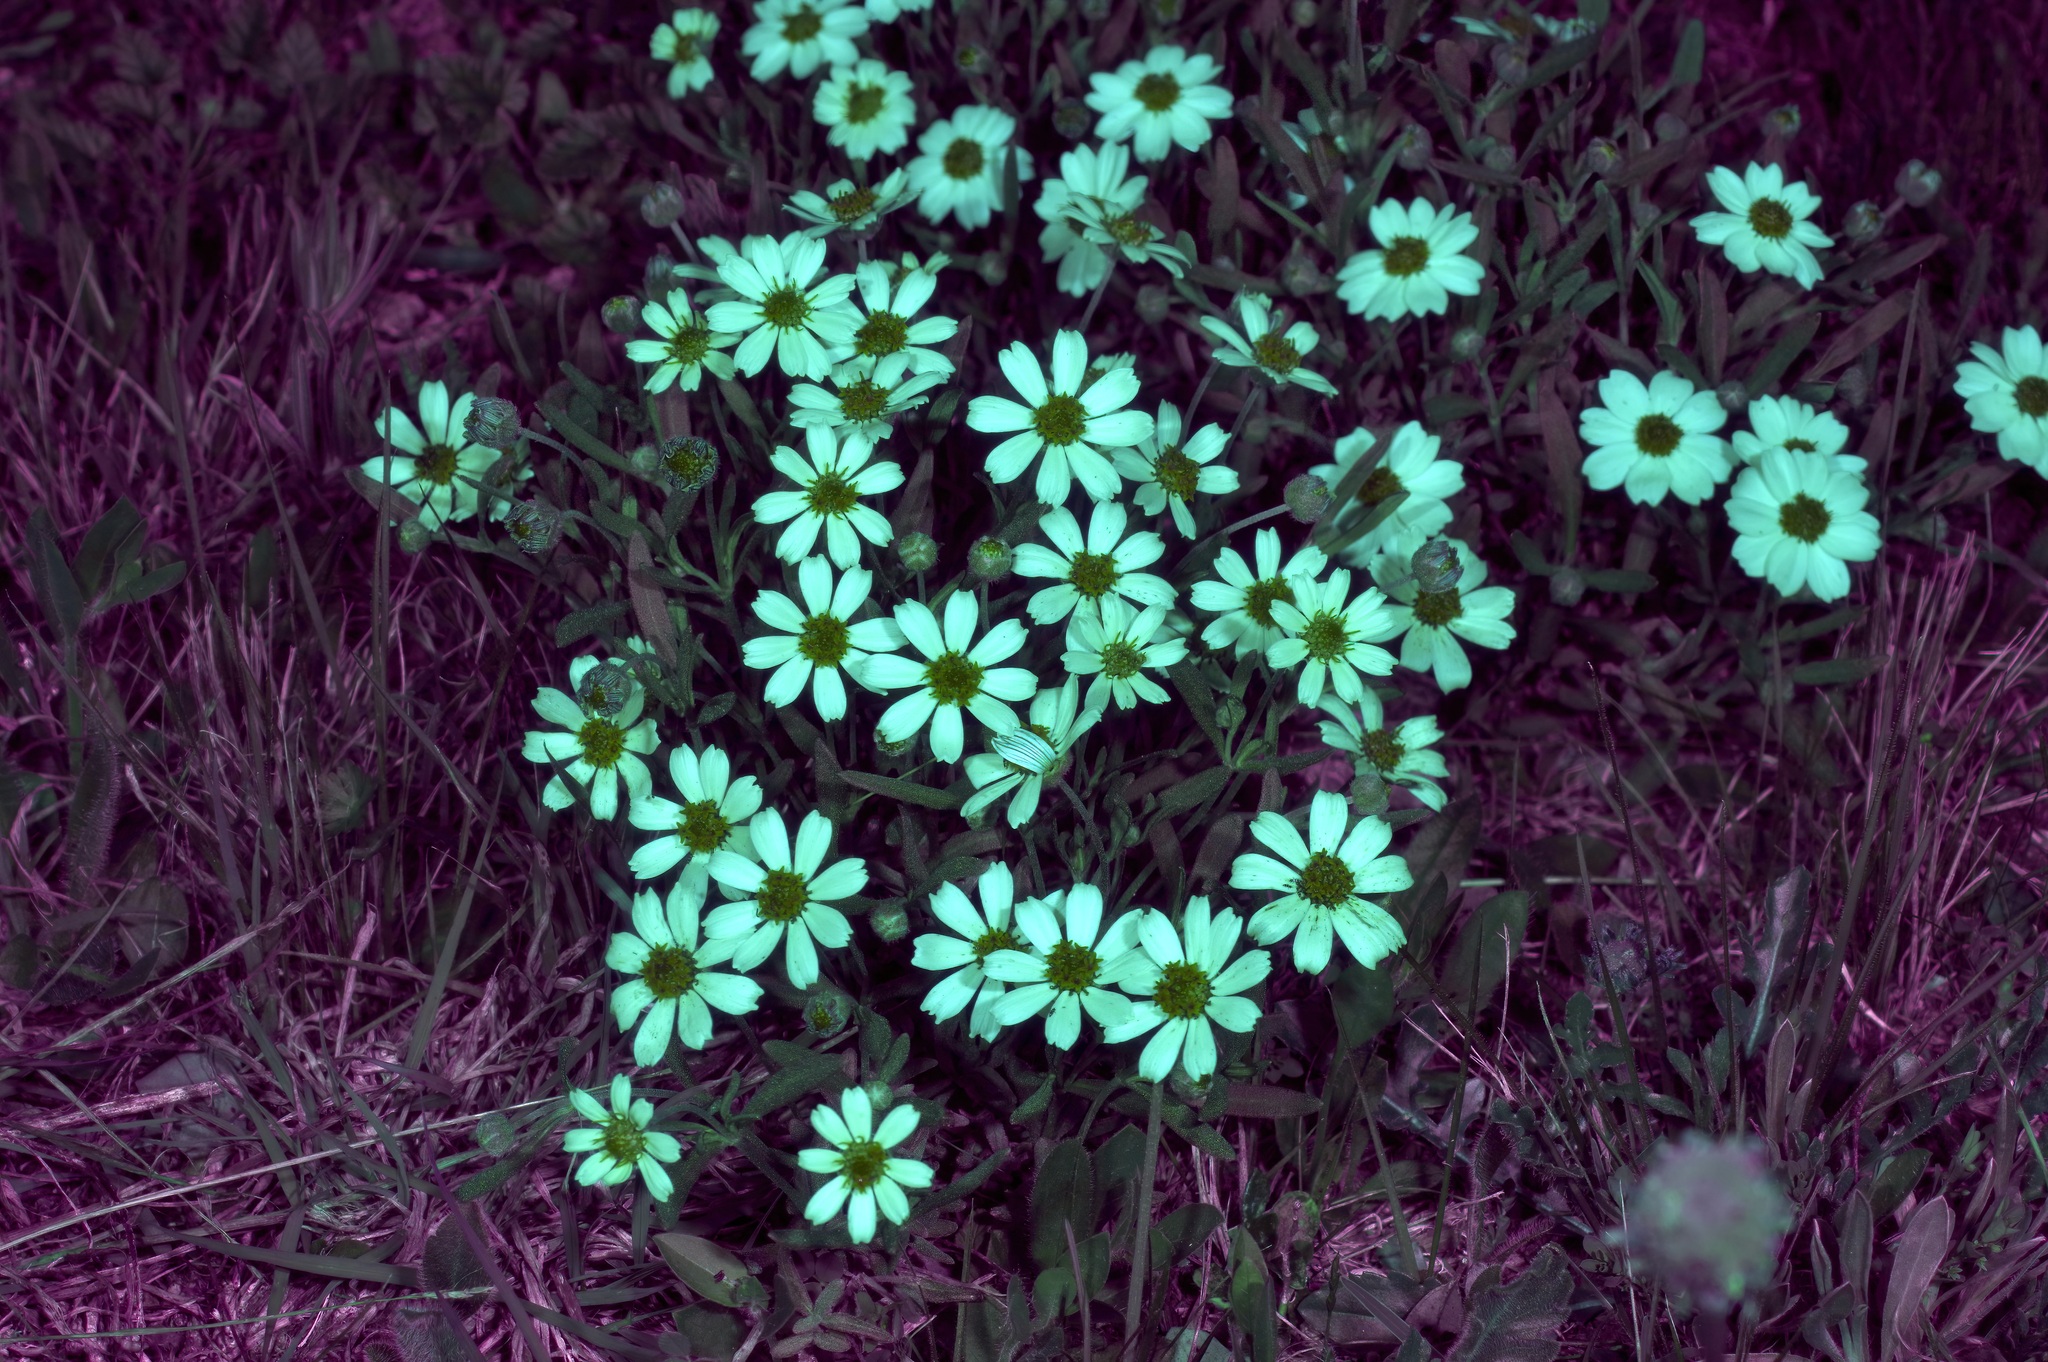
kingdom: Plantae
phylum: Tracheophyta
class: Magnoliopsida
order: Asterales
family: Asteraceae
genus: Melampodium
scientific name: Melampodium leucanthum
